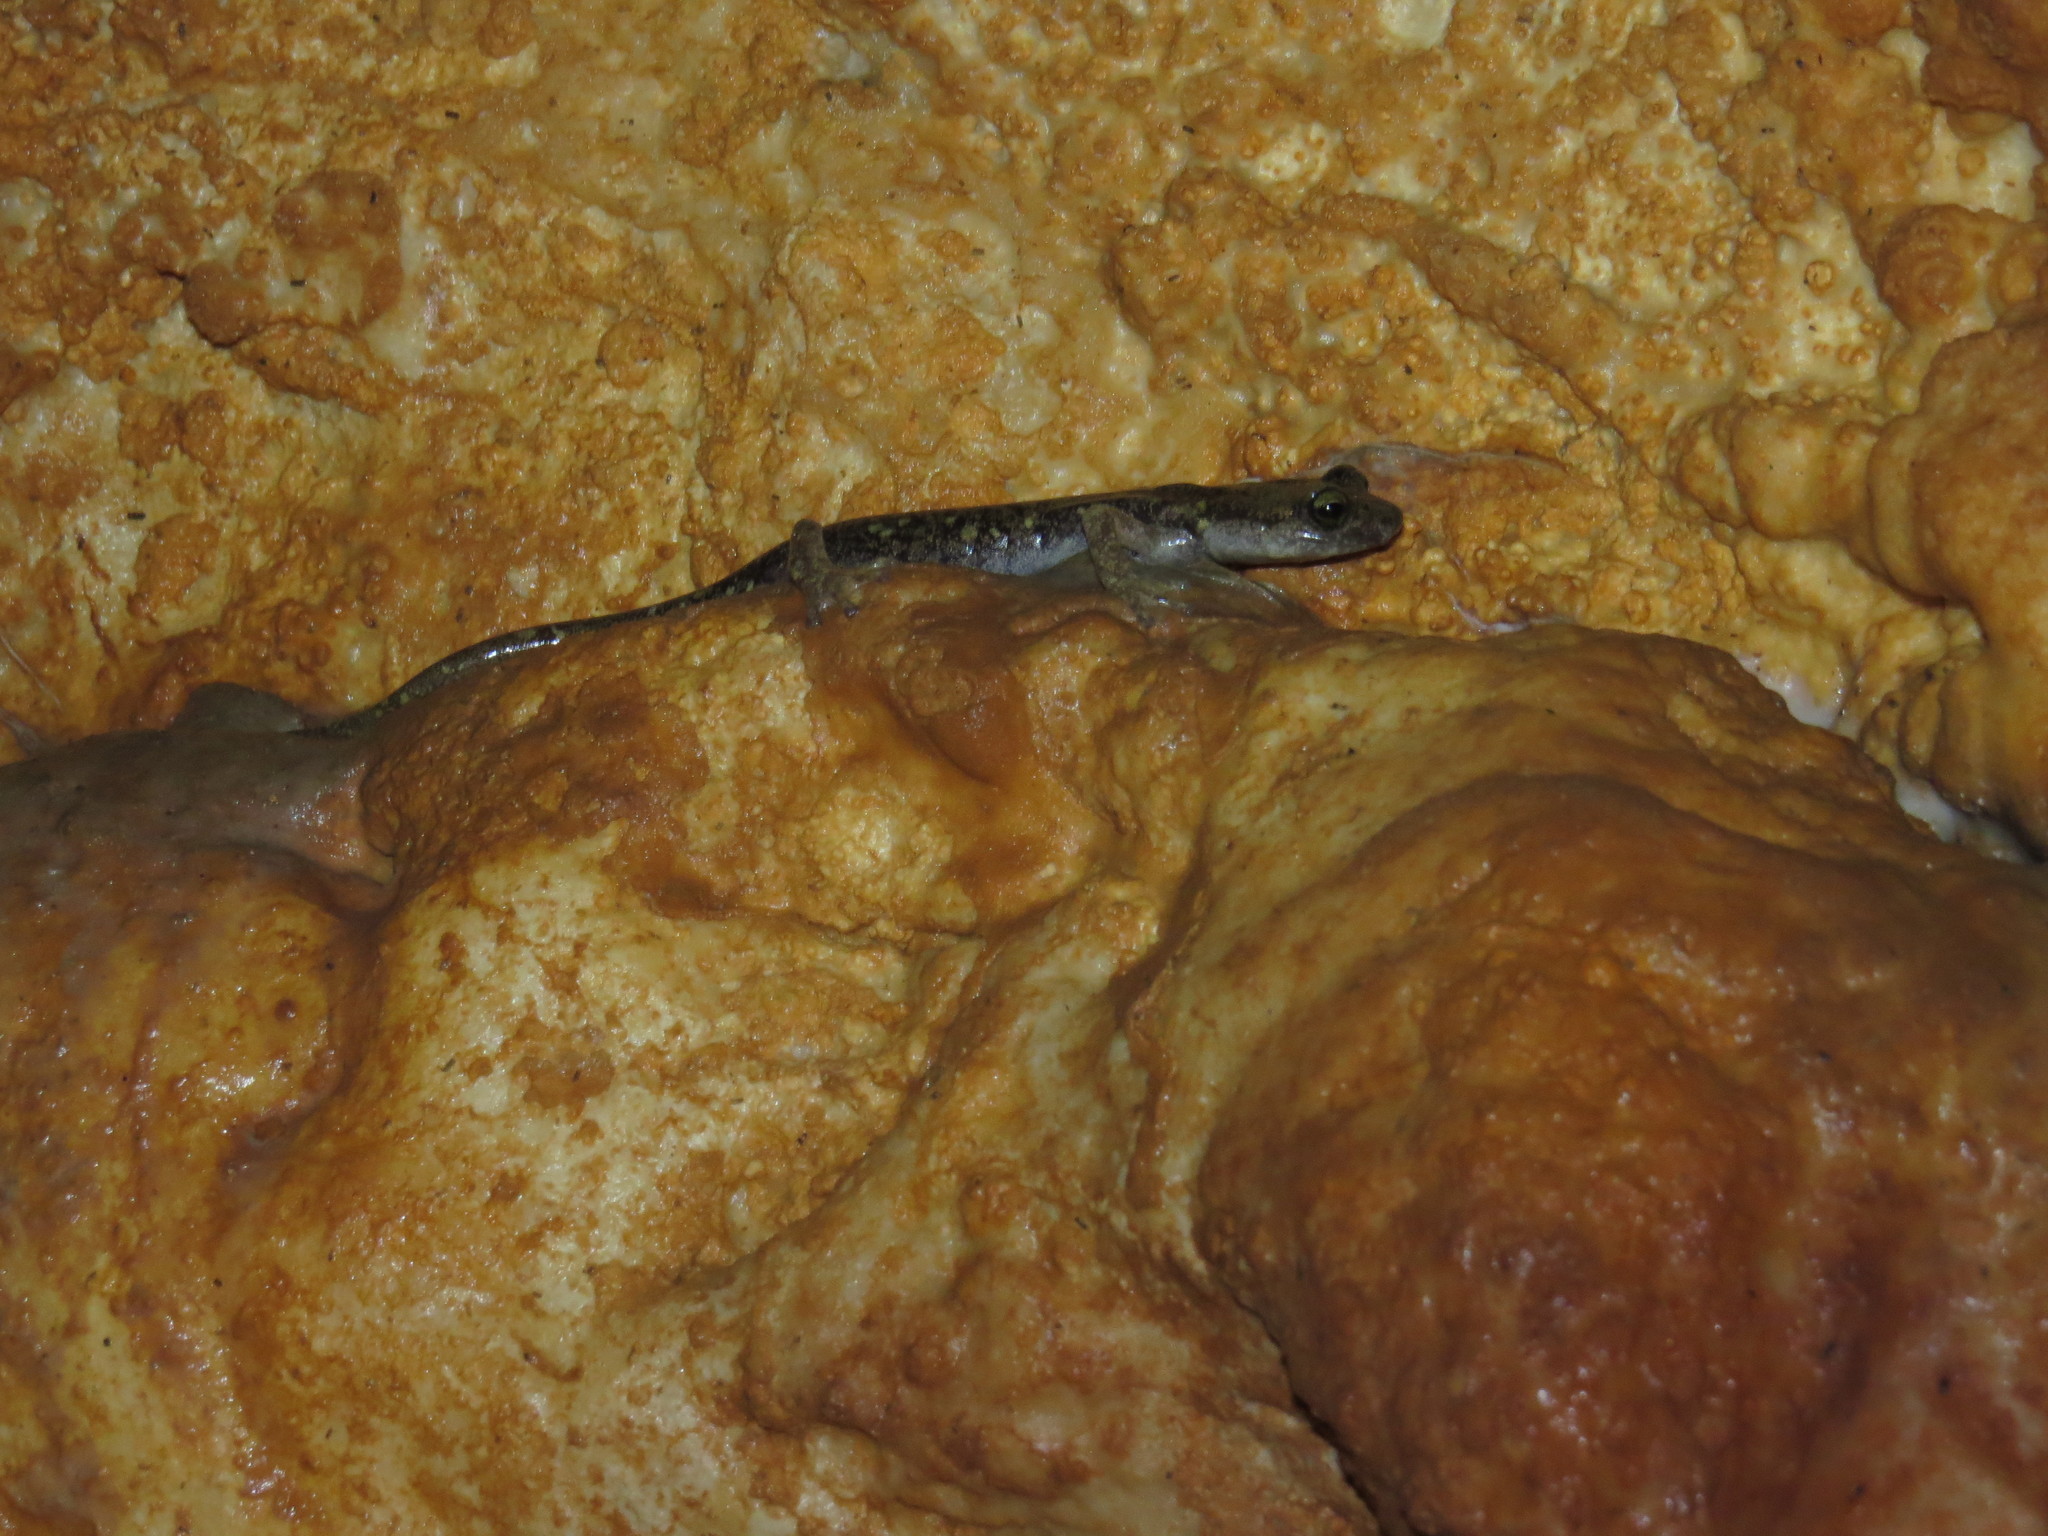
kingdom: Animalia
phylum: Chordata
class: Amphibia
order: Caudata
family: Plethodontidae
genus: Speleomantes
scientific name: Speleomantes supramontis
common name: Supramonte cave salamander
